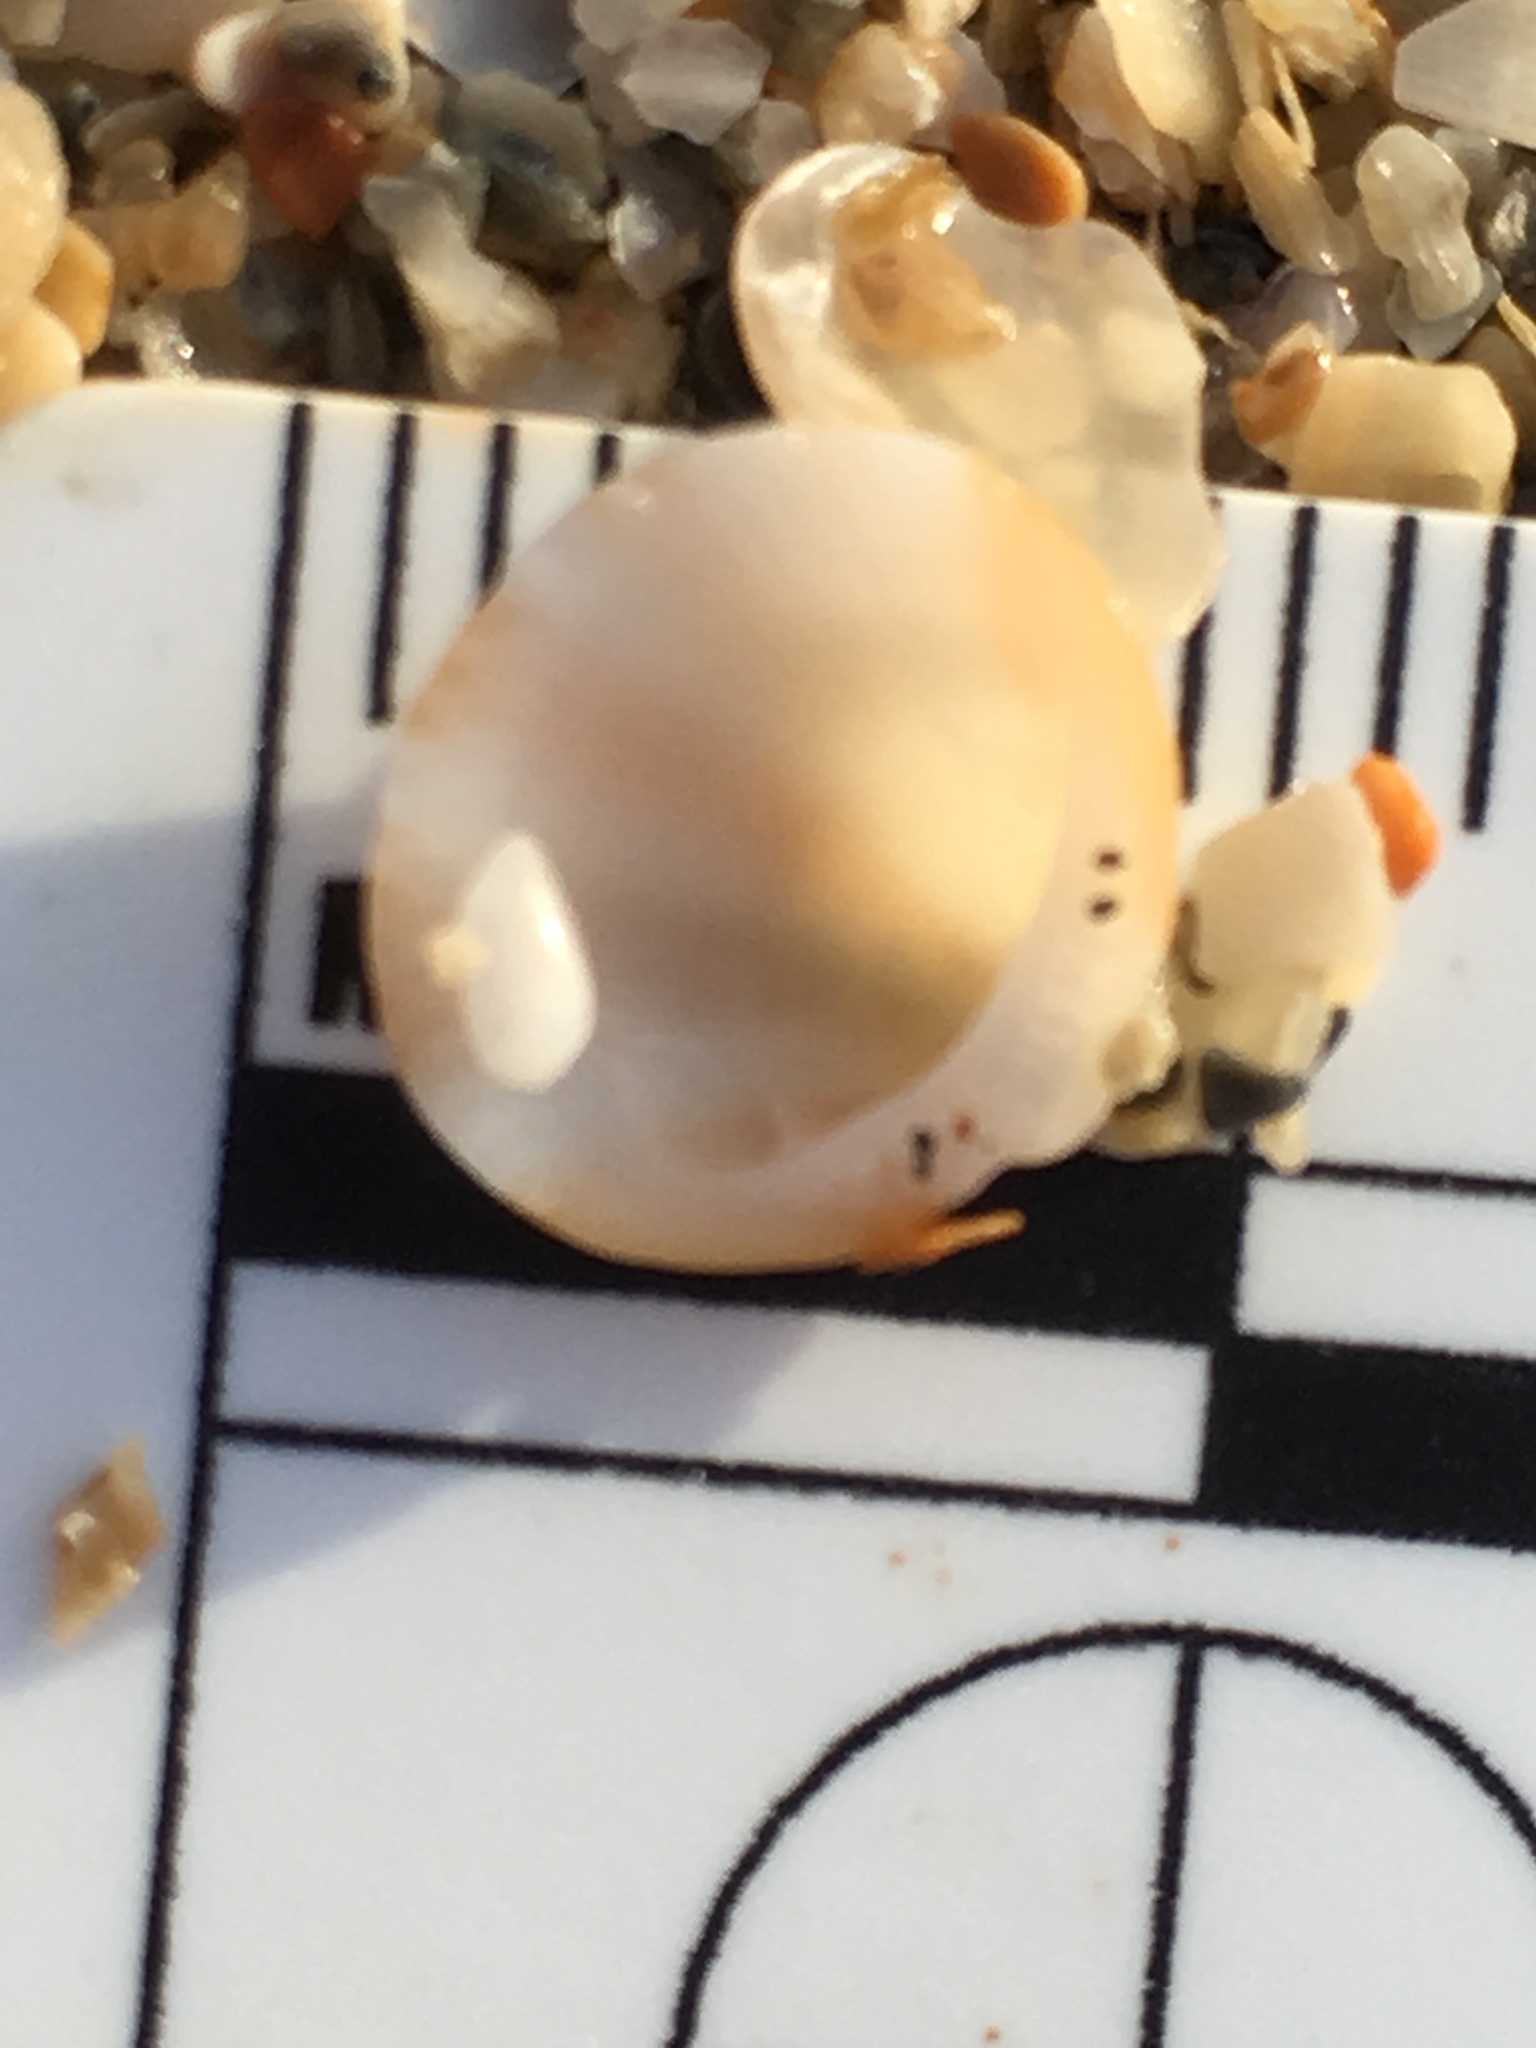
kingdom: Animalia
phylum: Mollusca
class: Bivalvia
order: Arcida
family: Glycymerididae
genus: Glycymeris
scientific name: Glycymeris spectralis
